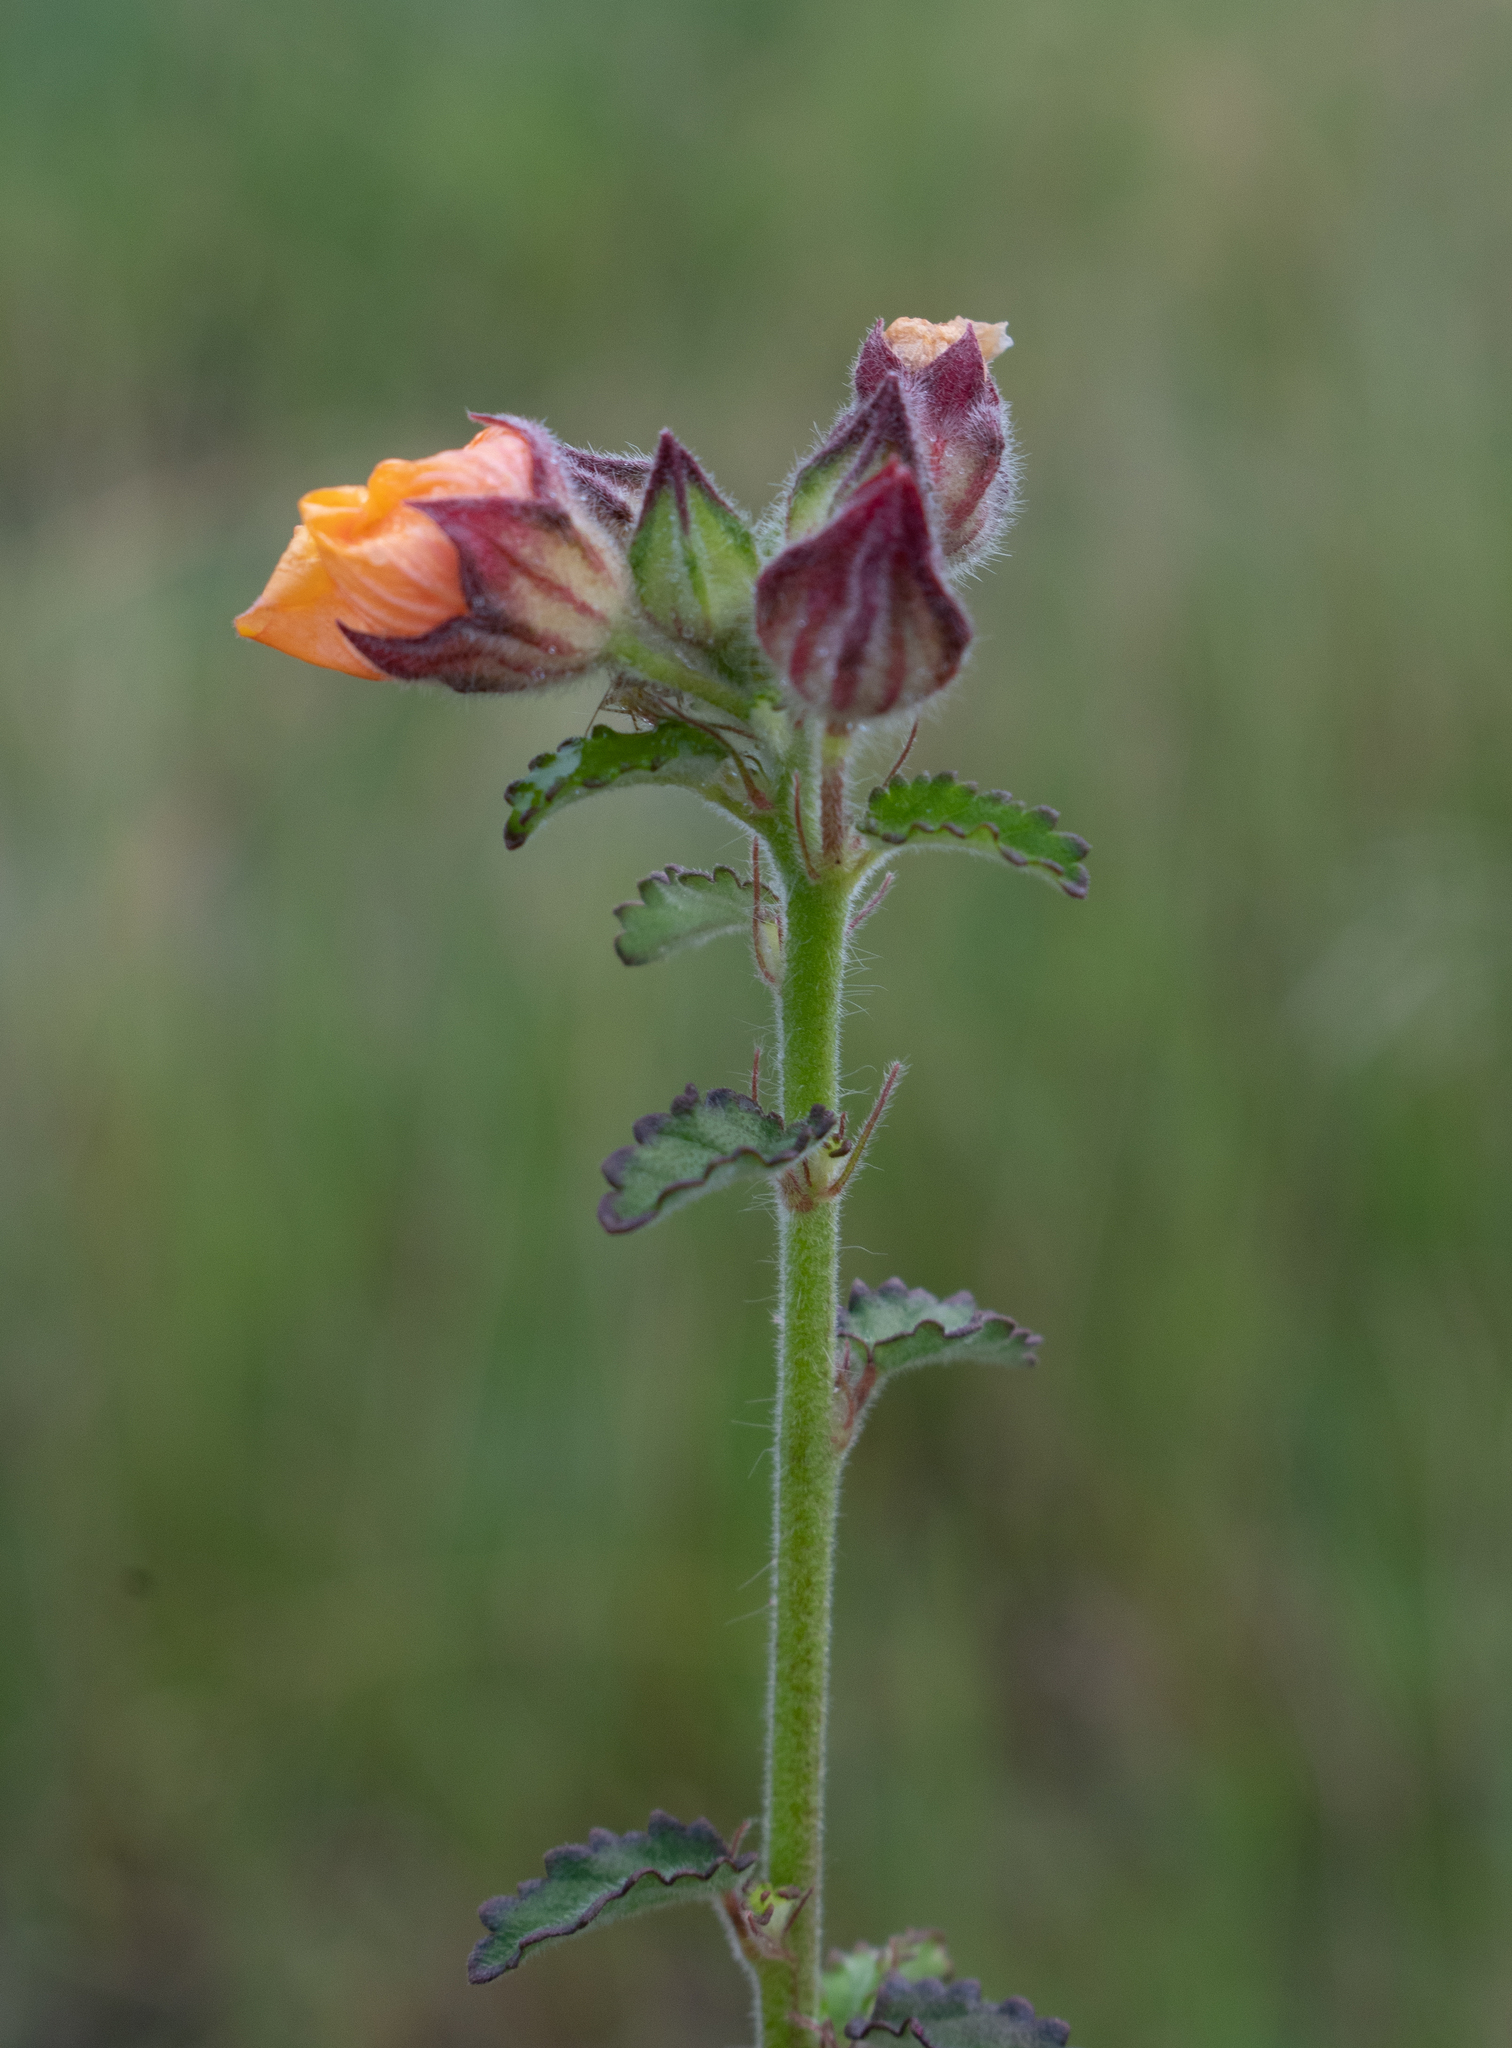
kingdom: Plantae
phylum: Tracheophyta
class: Magnoliopsida
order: Malvales
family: Malvaceae
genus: Sida
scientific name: Sida cerradoensis
